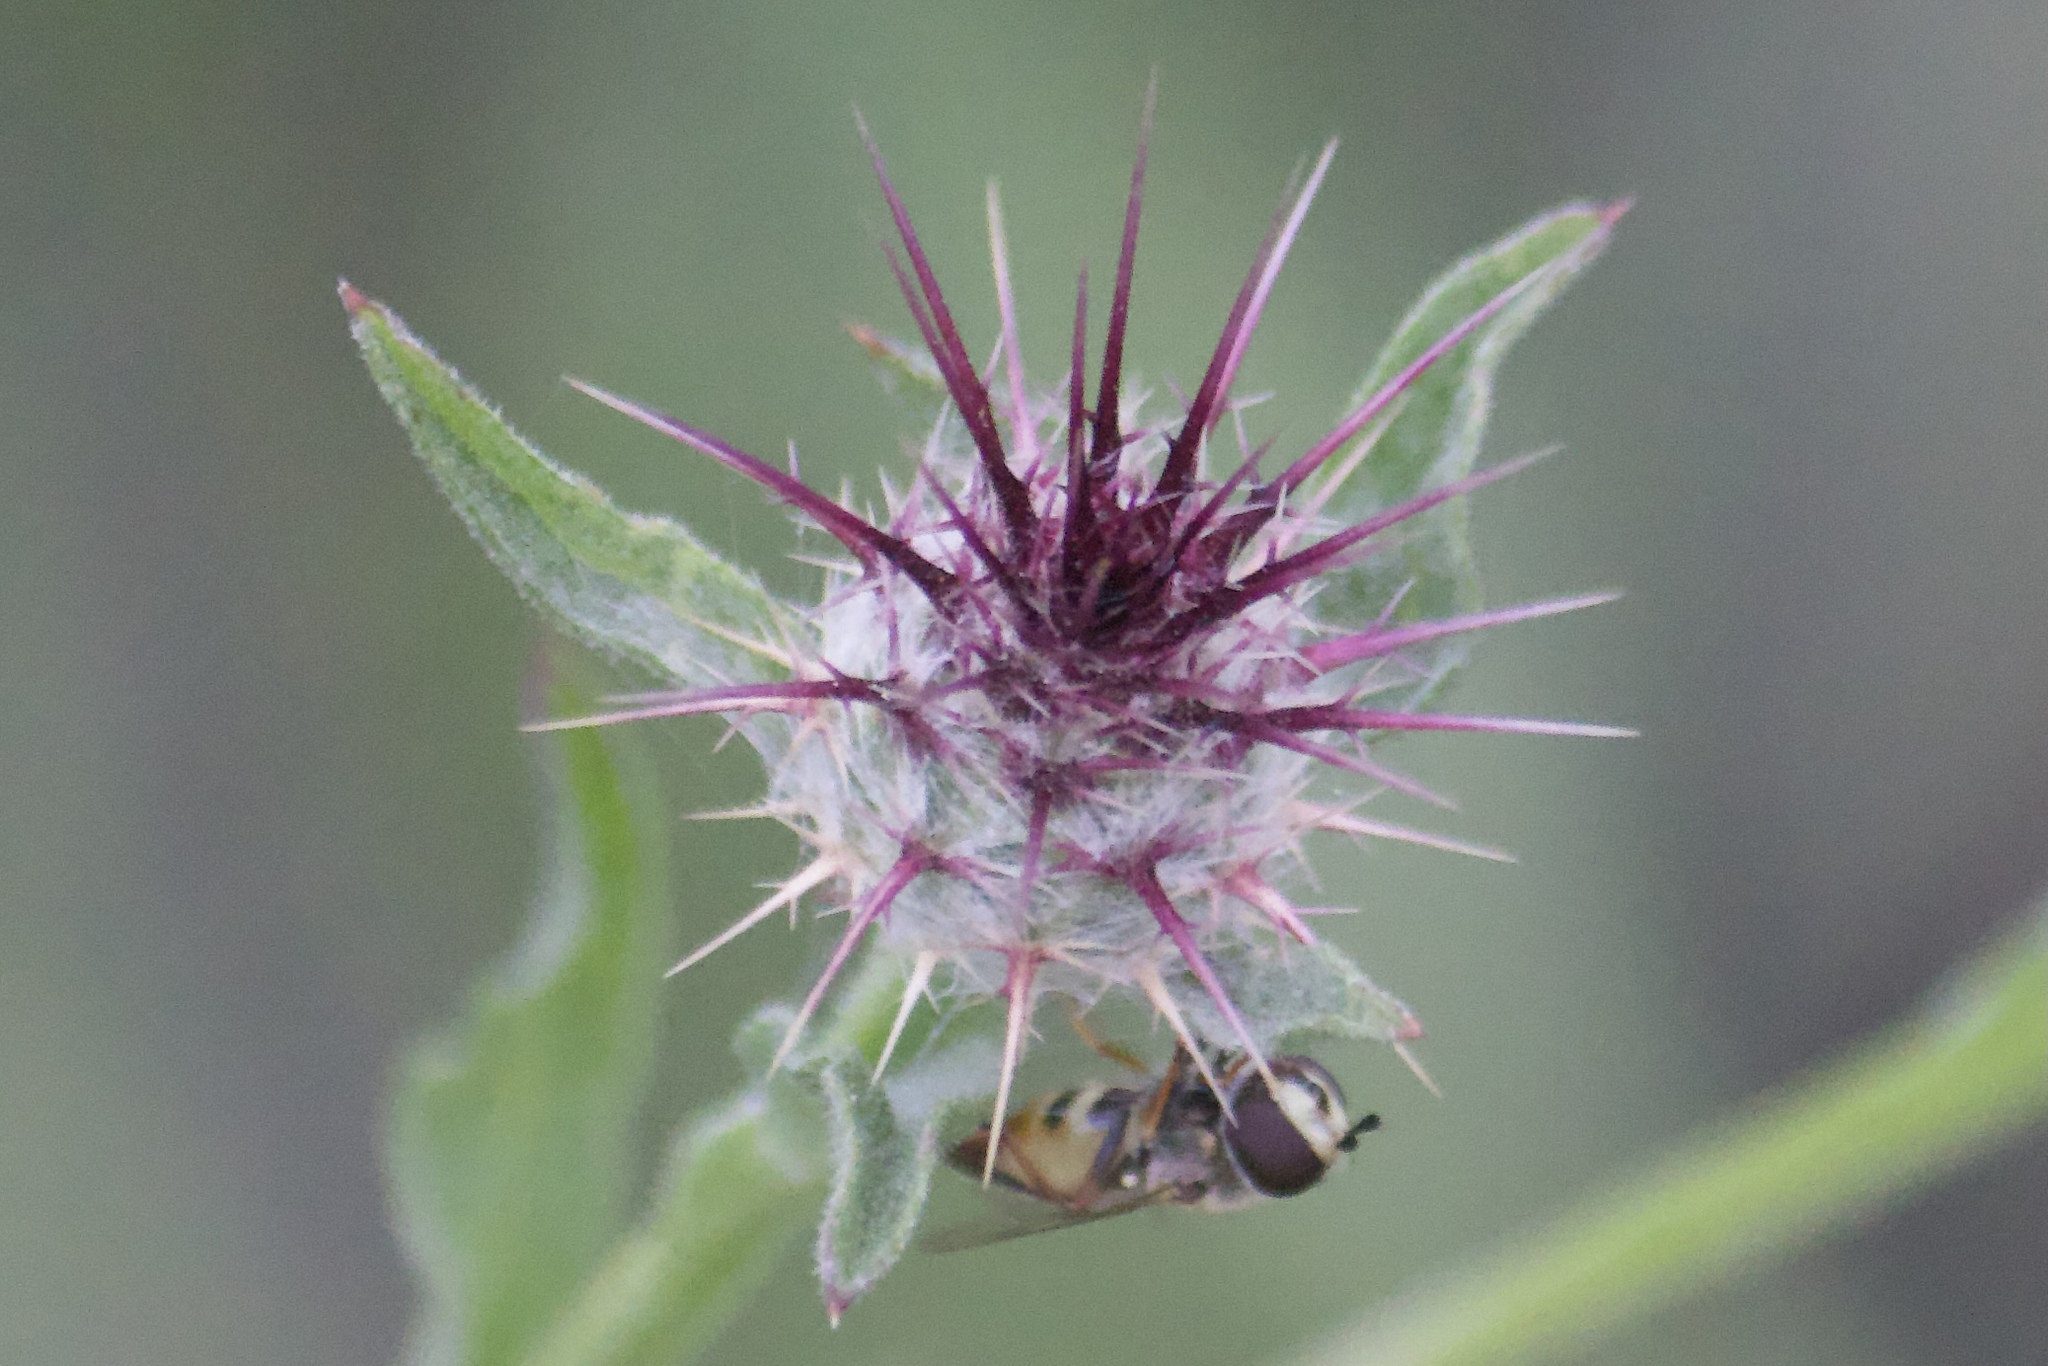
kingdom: Plantae
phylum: Tracheophyta
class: Magnoliopsida
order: Asterales
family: Asteraceae
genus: Centaurea
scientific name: Centaurea melitensis
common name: Maltese star-thistle
